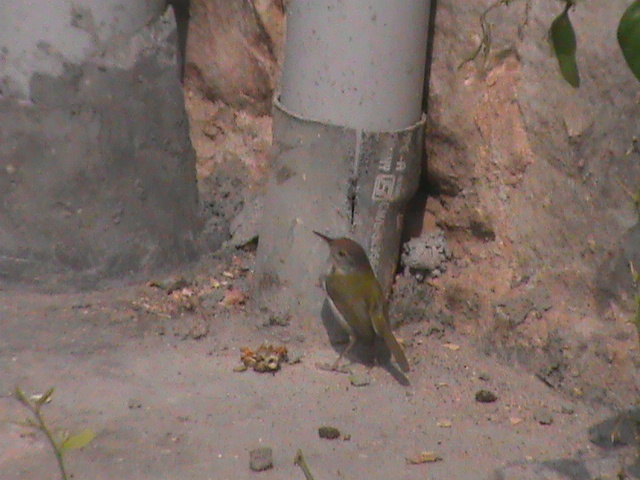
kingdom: Animalia
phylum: Chordata
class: Aves
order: Passeriformes
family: Cisticolidae
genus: Orthotomus
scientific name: Orthotomus sutorius
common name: Common tailorbird
